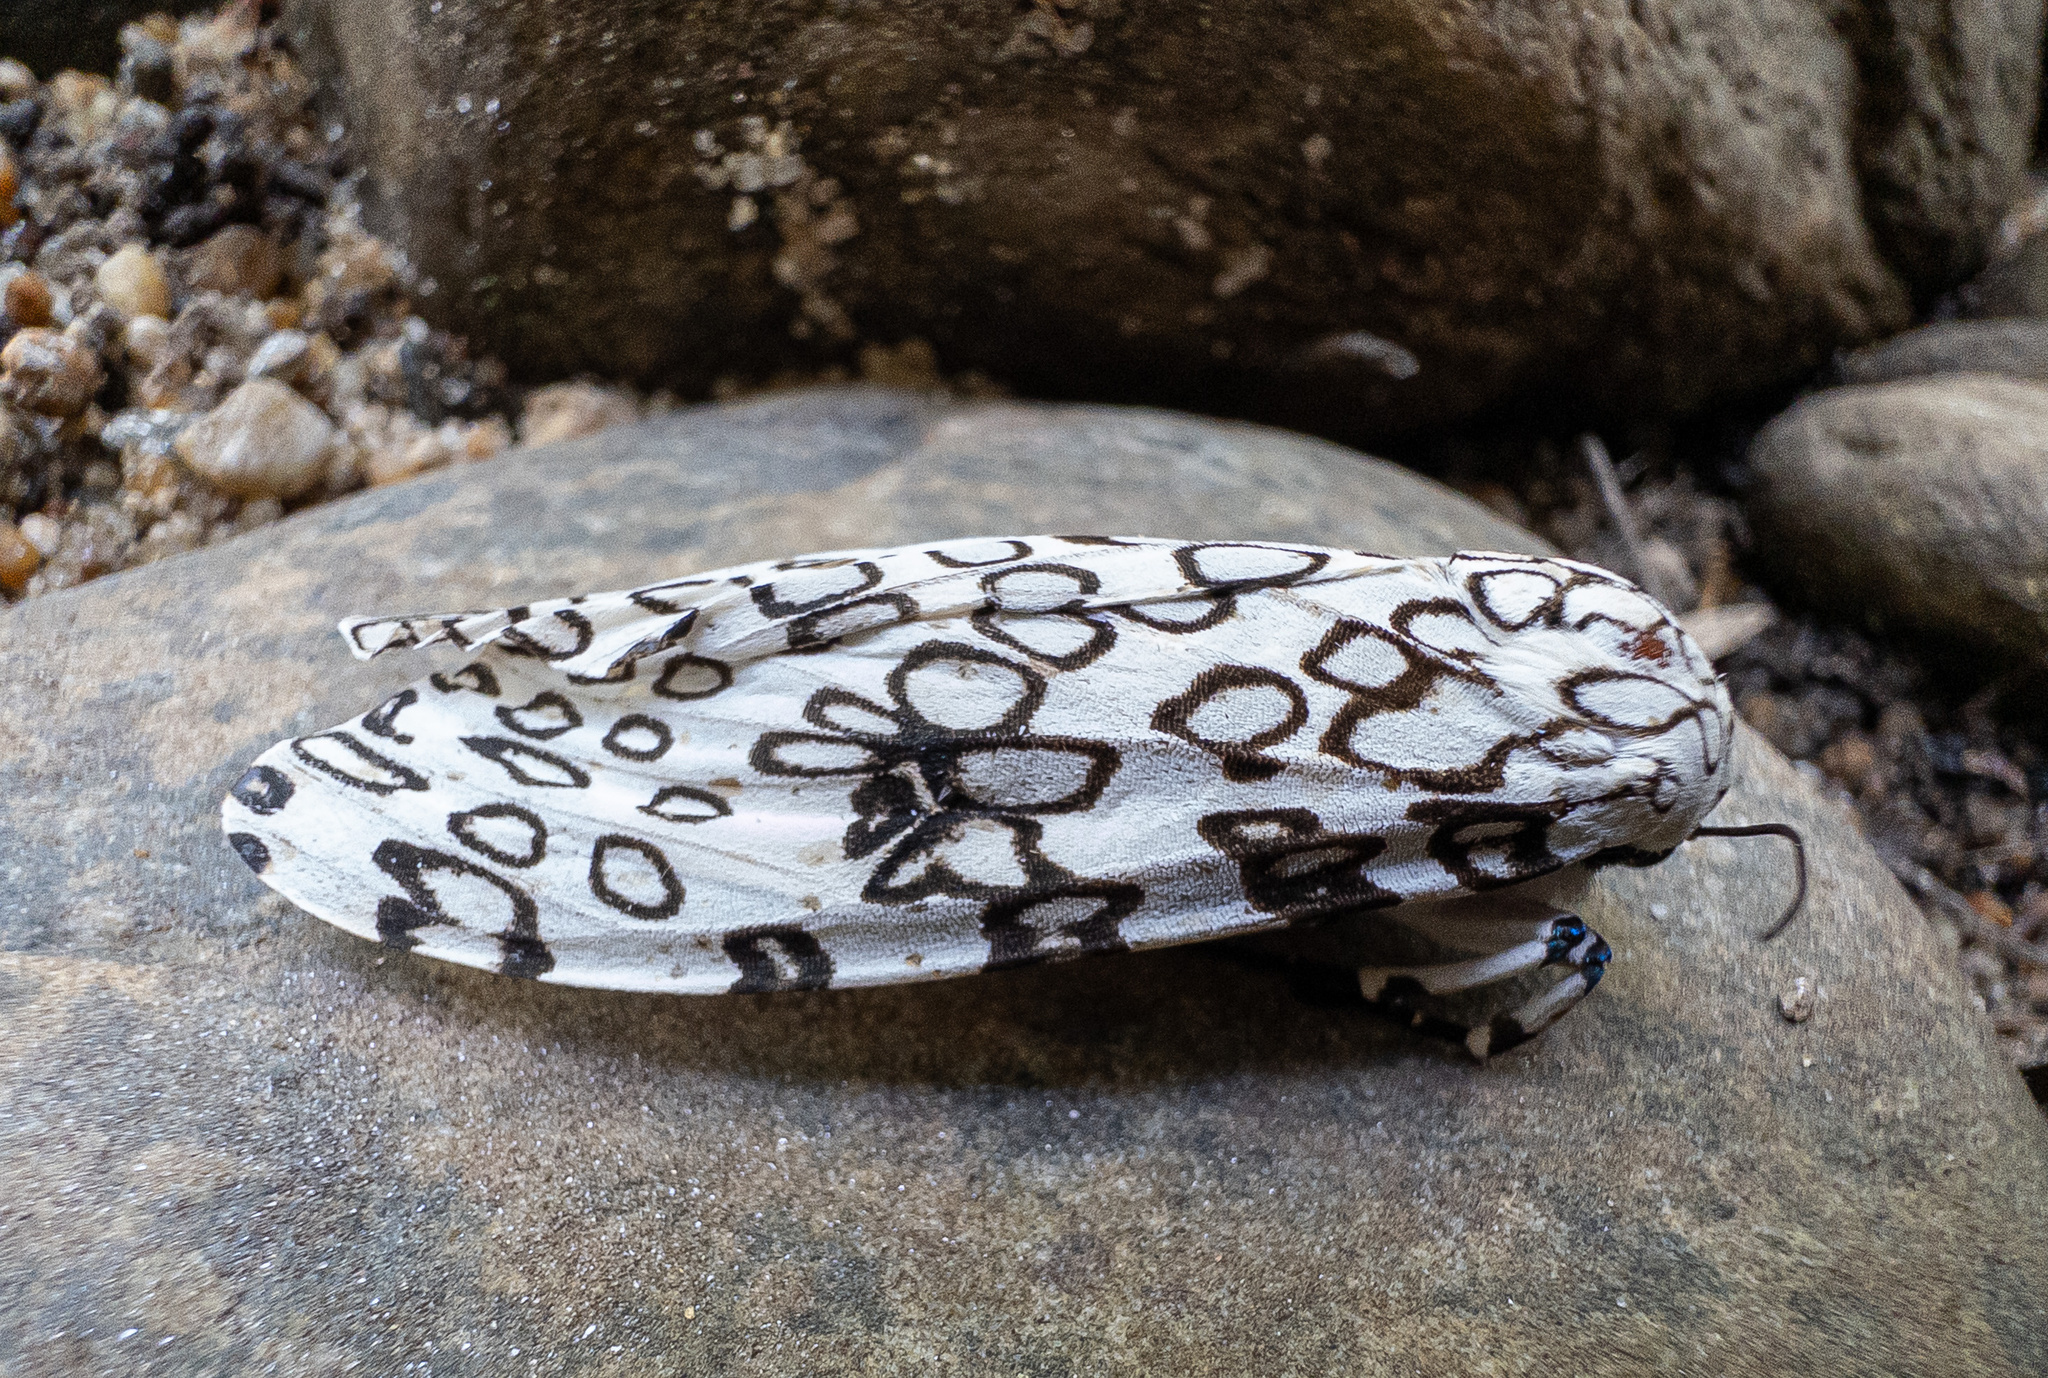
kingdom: Animalia
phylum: Arthropoda
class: Insecta
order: Lepidoptera
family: Erebidae
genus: Hypercompe
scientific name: Hypercompe scribonia
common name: Giant leopard moth
